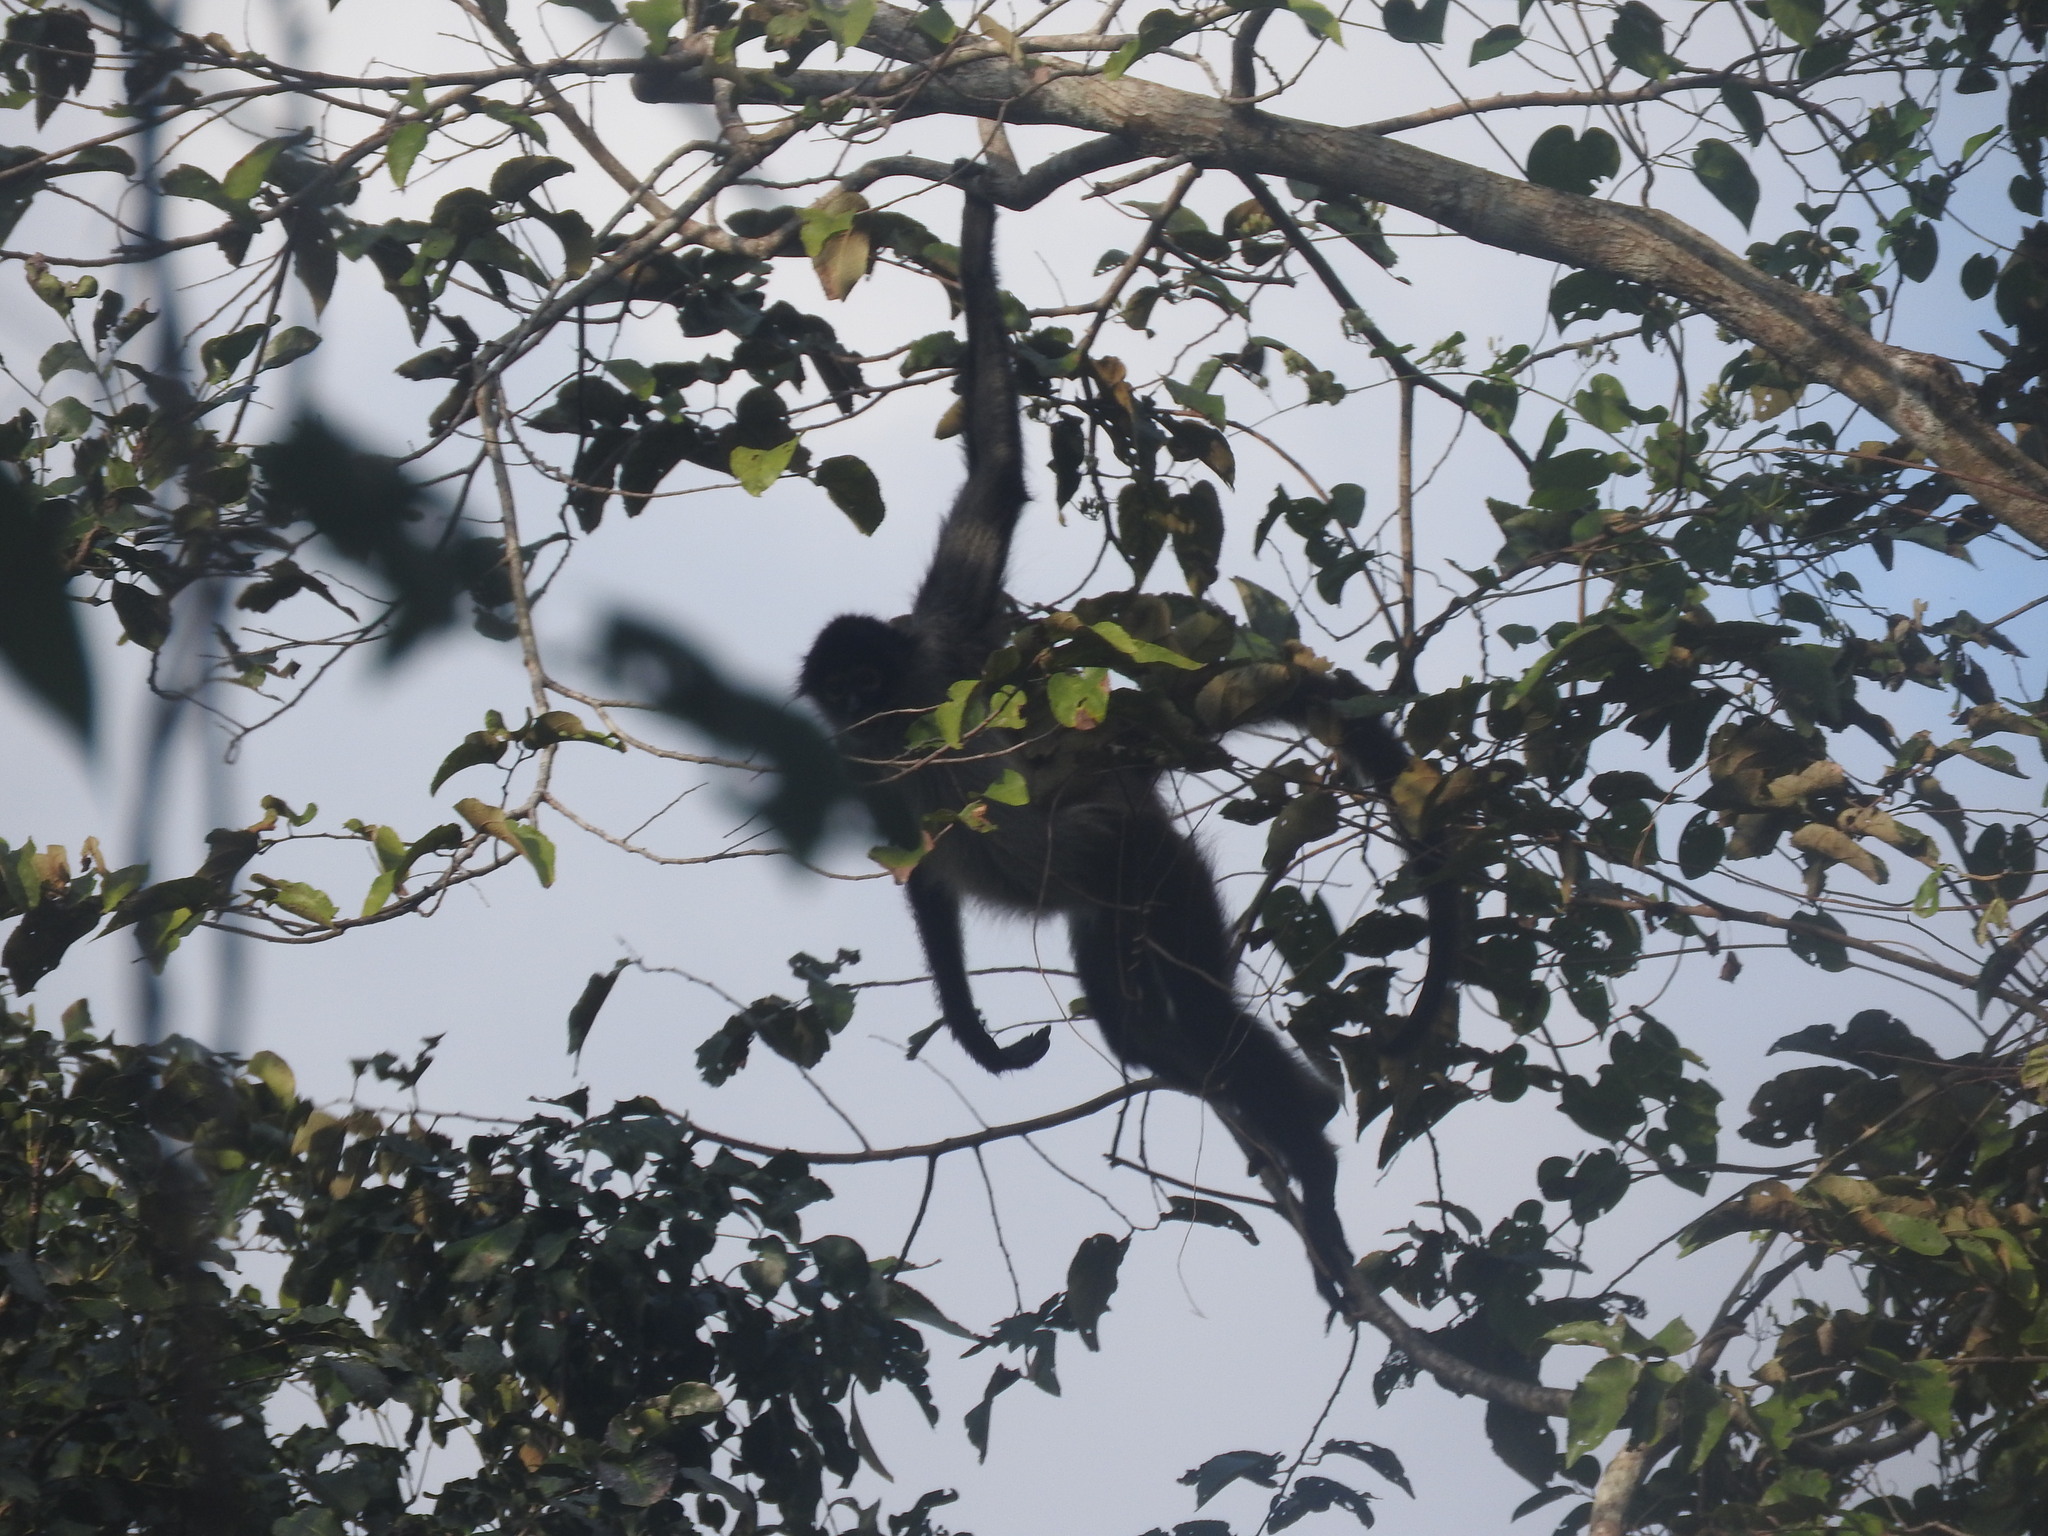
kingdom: Animalia
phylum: Chordata
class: Mammalia
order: Primates
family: Atelidae
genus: Ateles
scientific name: Ateles geoffroyi
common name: Black-handed spider monkey
